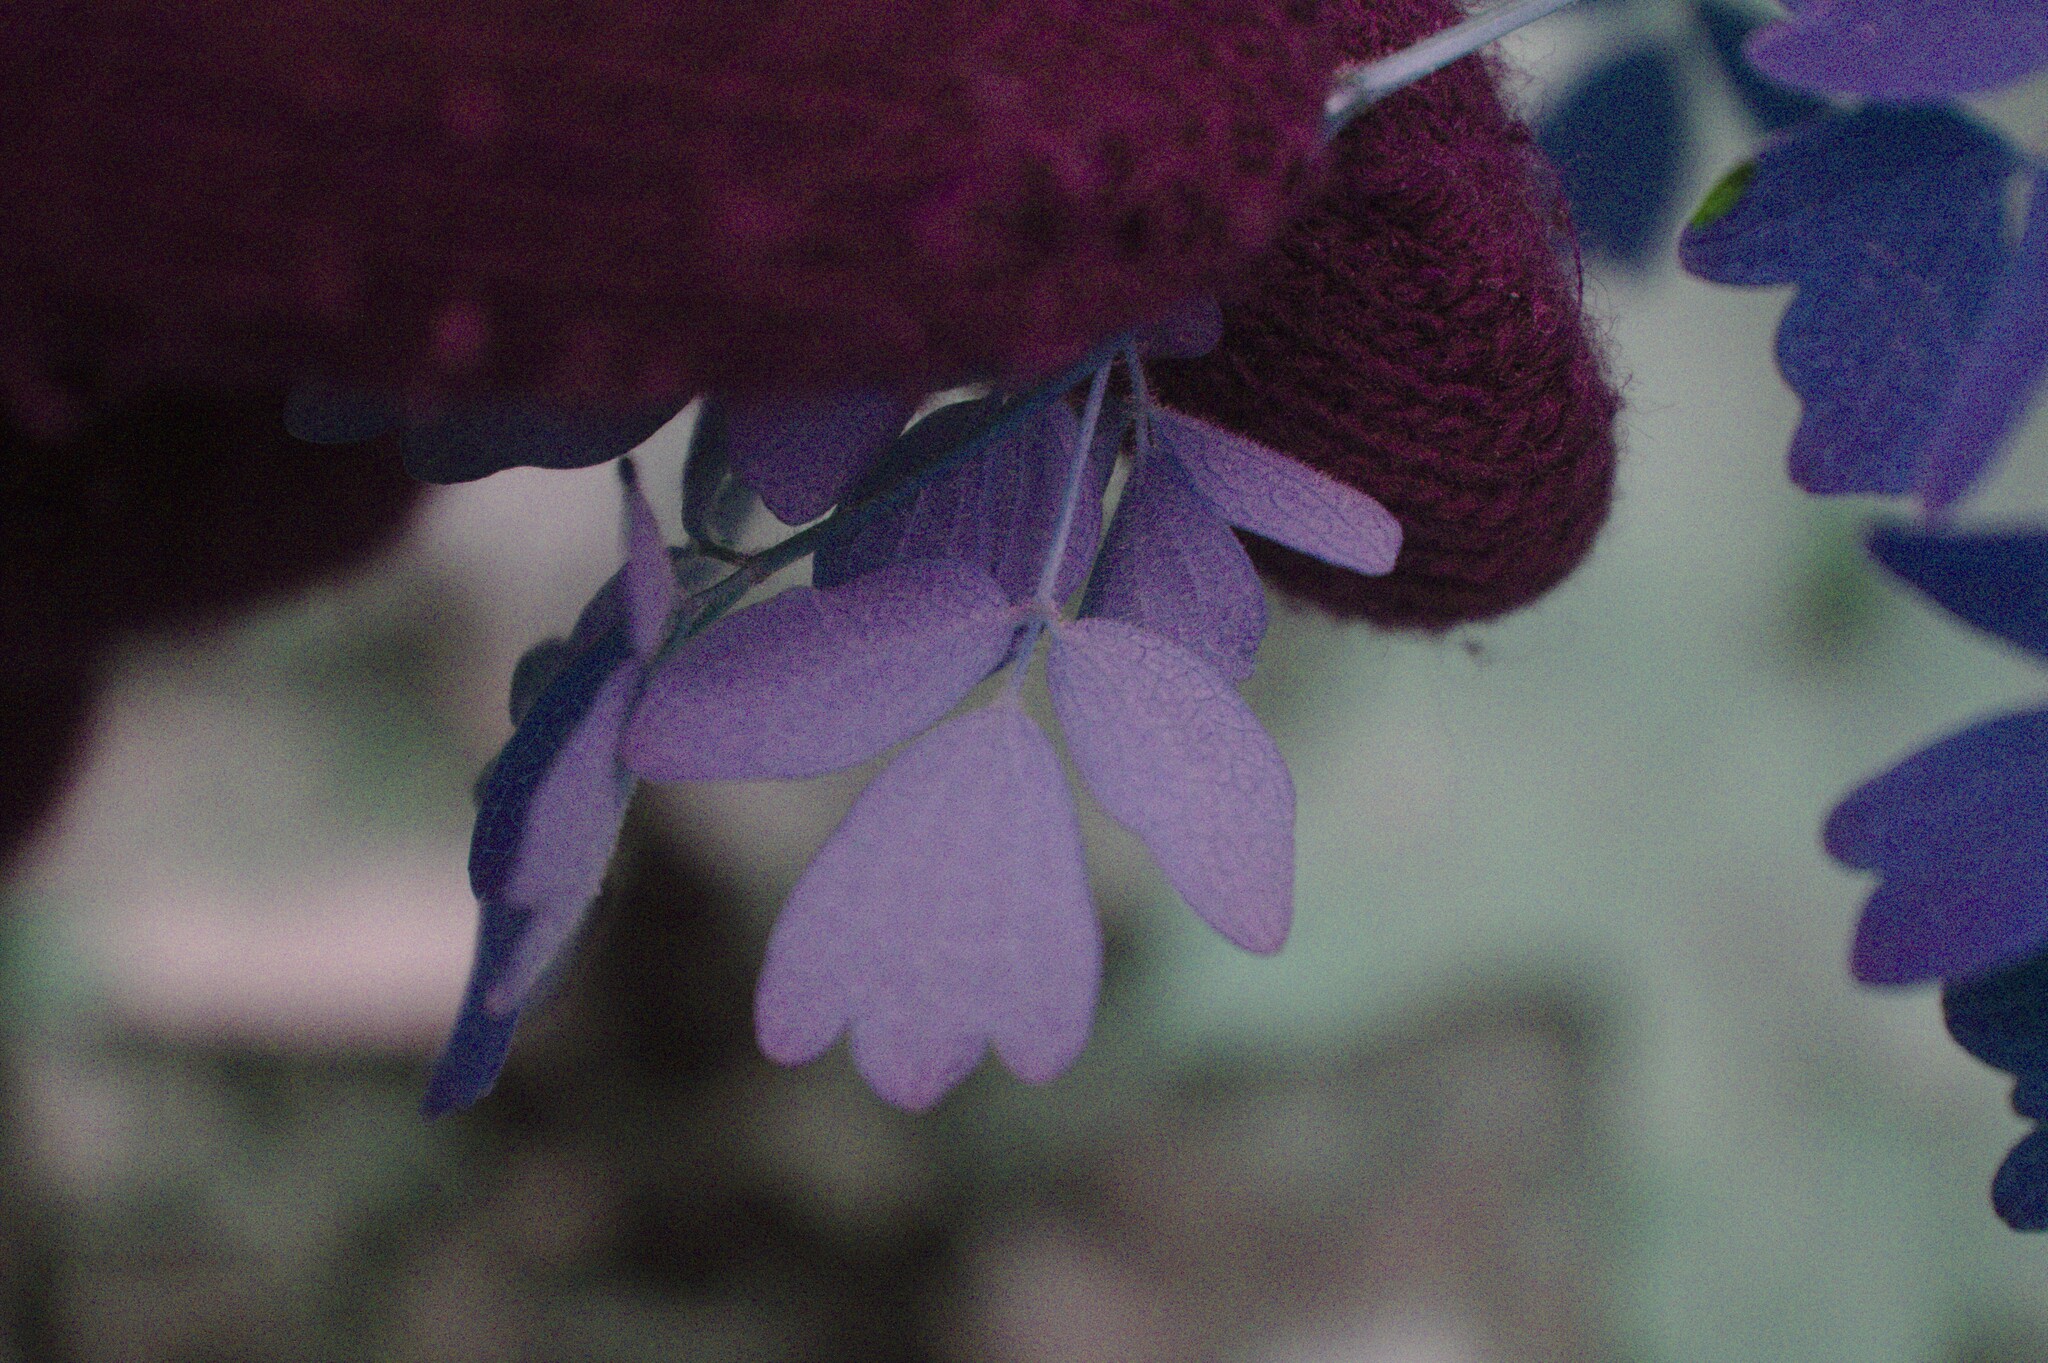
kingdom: Plantae
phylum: Tracheophyta
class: Magnoliopsida
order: Ranunculales
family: Ranunculaceae
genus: Thalictrum
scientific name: Thalictrum dioicum
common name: Early meadow-rue
